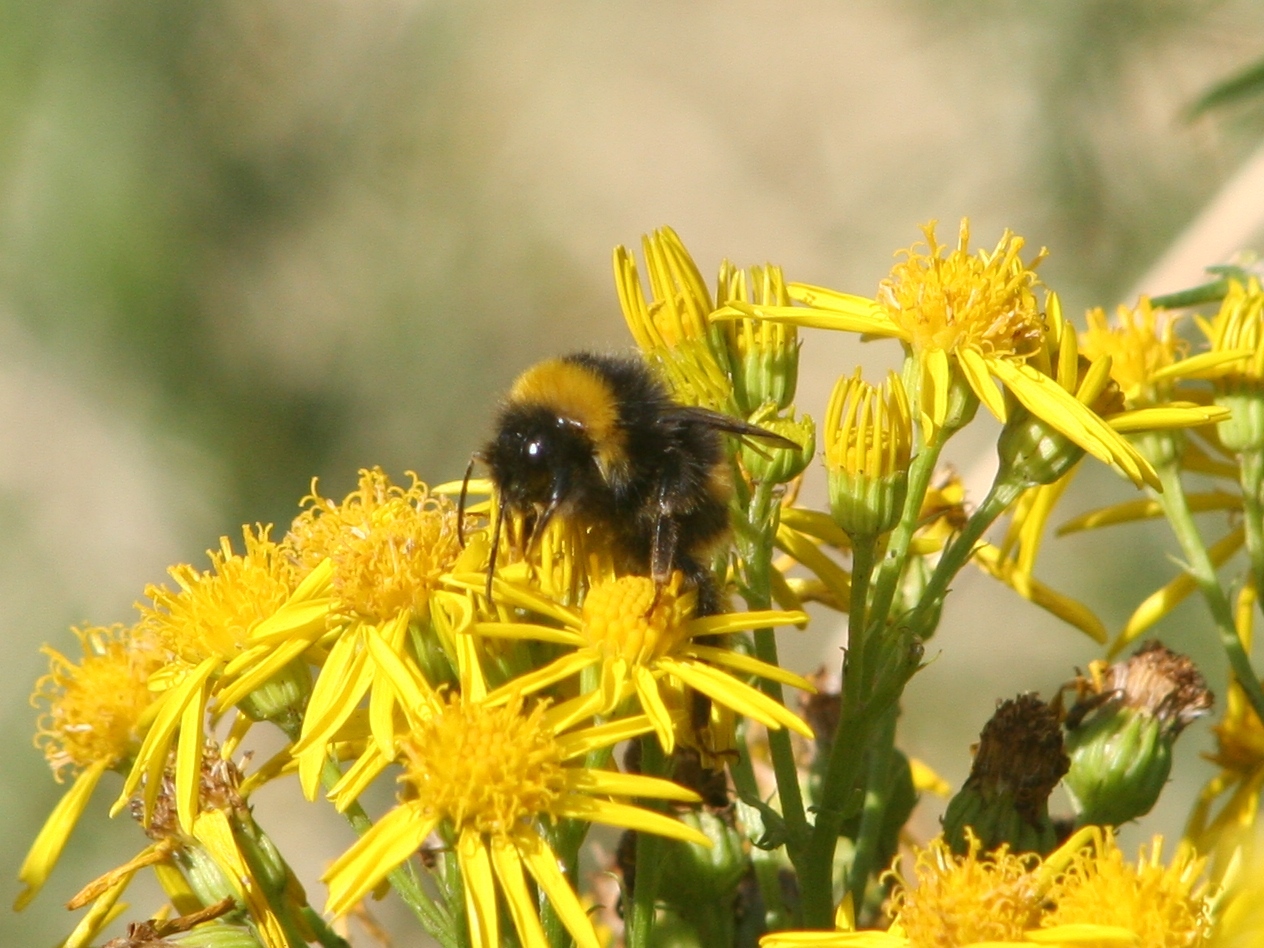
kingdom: Animalia
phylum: Arthropoda
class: Insecta
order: Hymenoptera
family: Apidae
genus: Bombus
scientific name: Bombus terrestris
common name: Buff-tailed bumblebee
